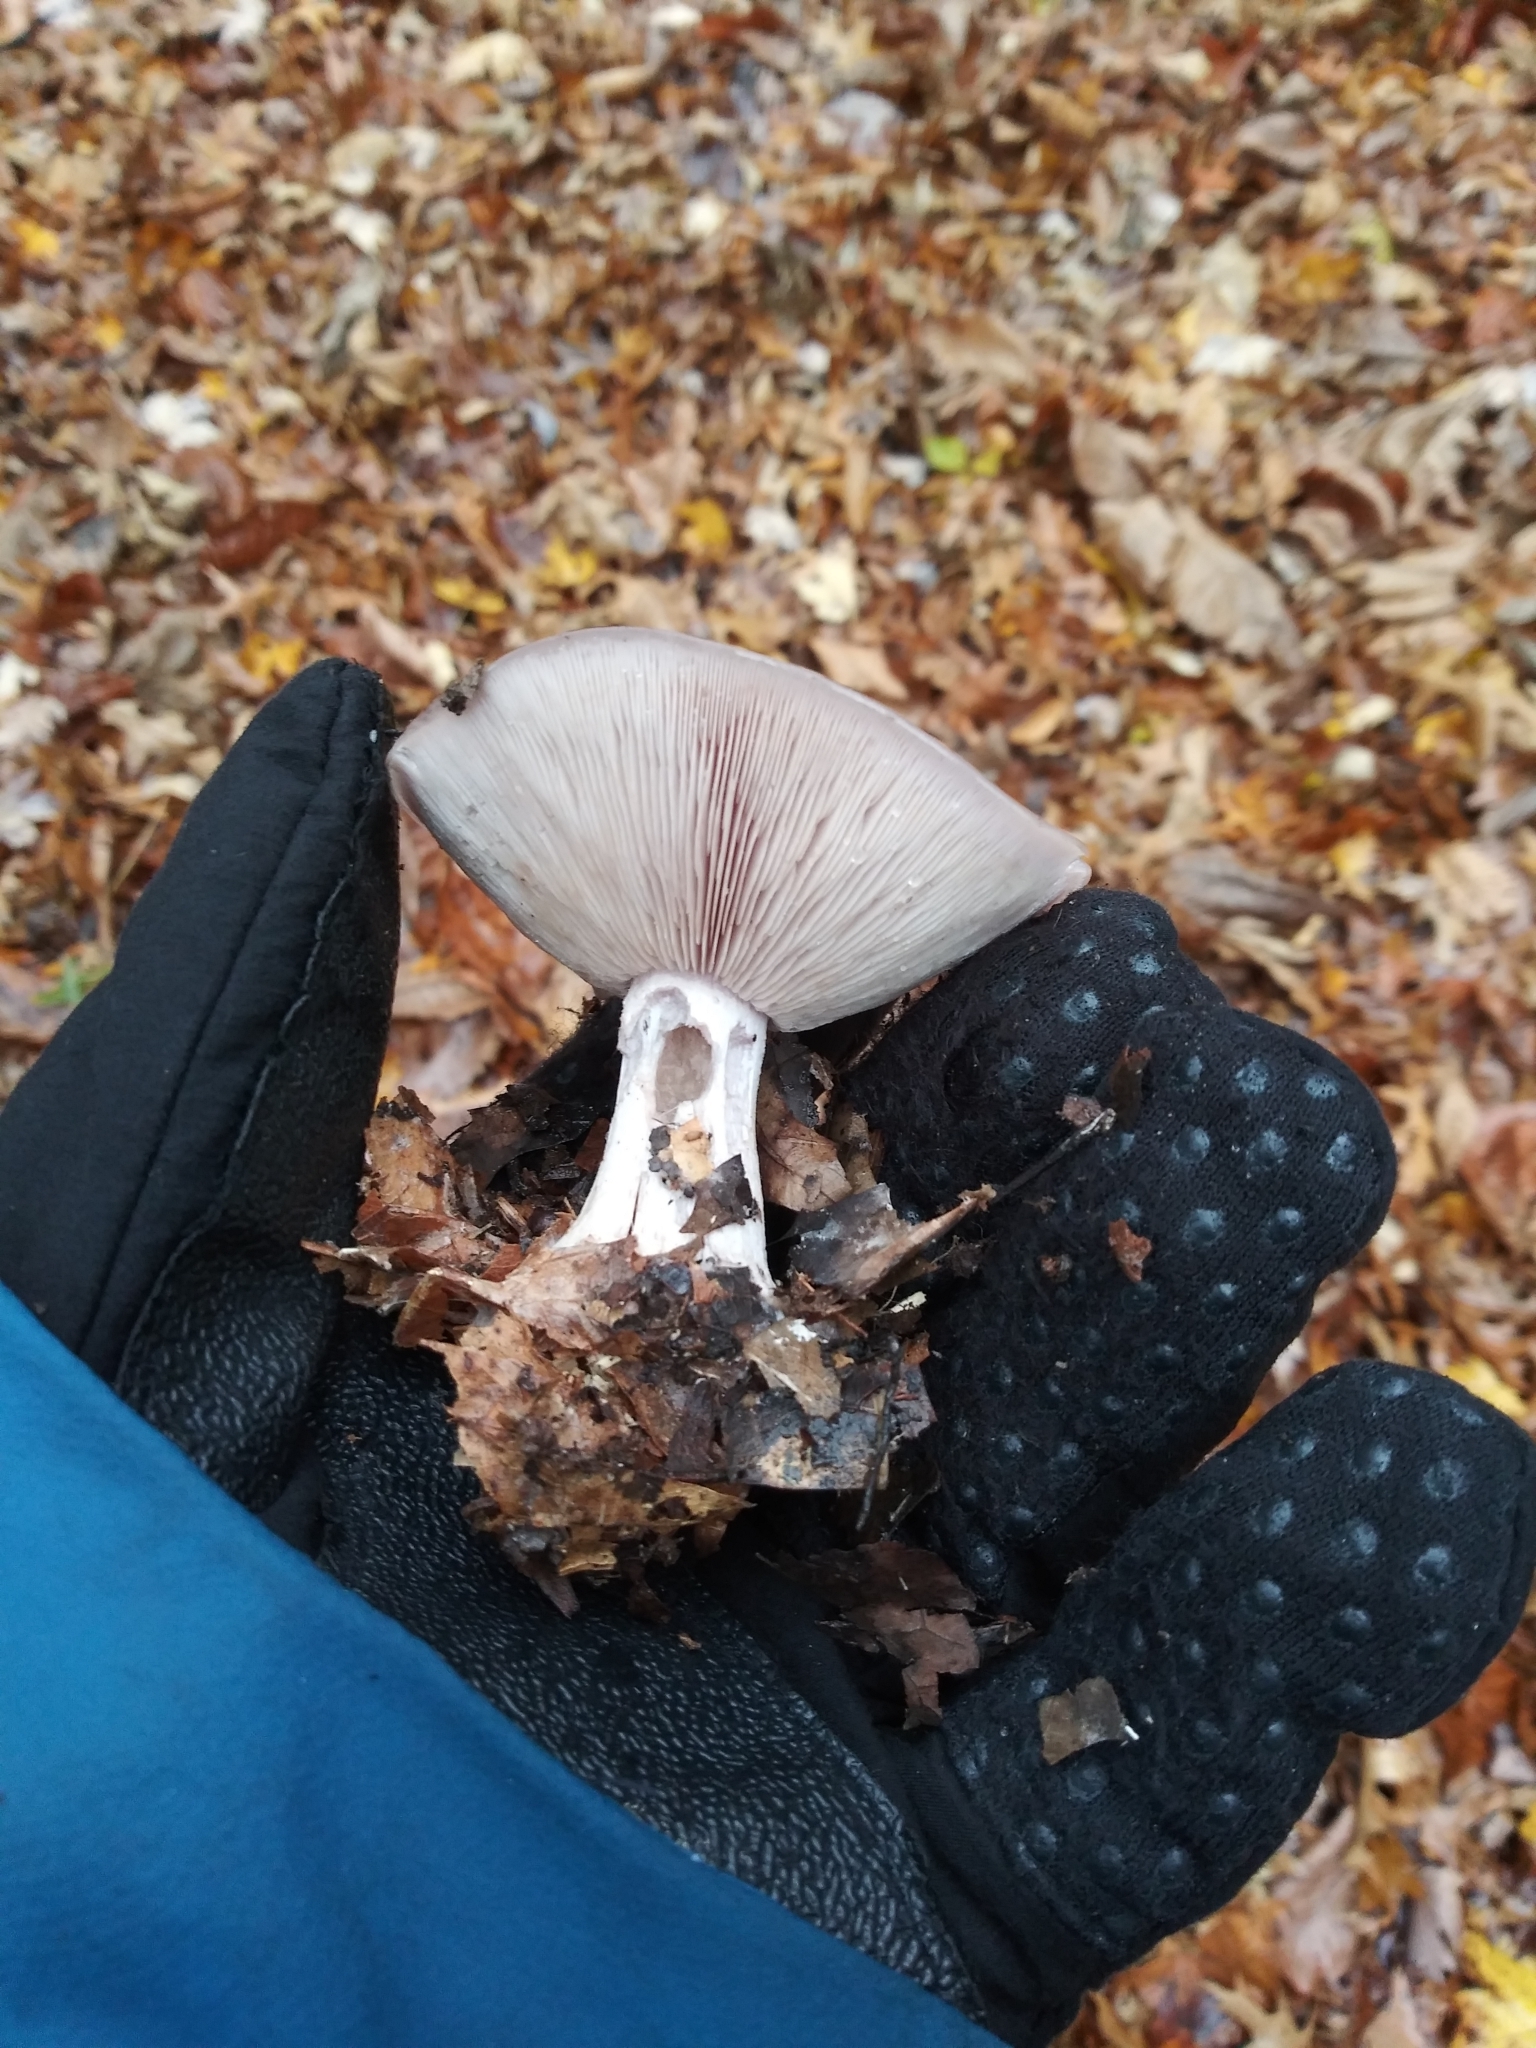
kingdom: Fungi
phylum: Basidiomycota
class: Agaricomycetes
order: Agaricales
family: Tricholomataceae
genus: Collybia
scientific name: Collybia
